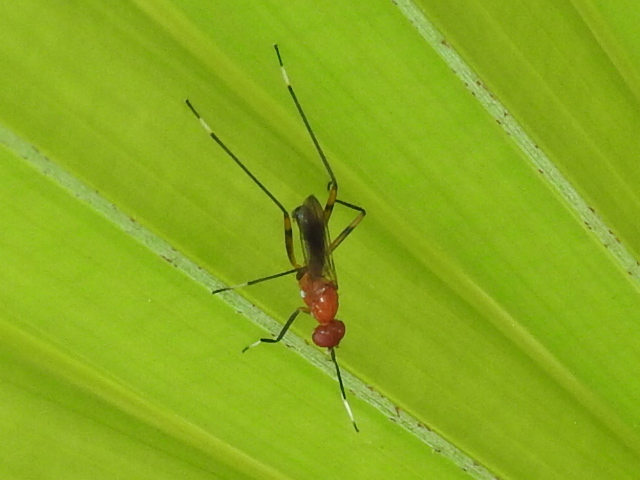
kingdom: Animalia
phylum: Arthropoda
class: Insecta
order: Diptera
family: Micropezidae
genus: Grallipeza
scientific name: Grallipeza nebulosa
